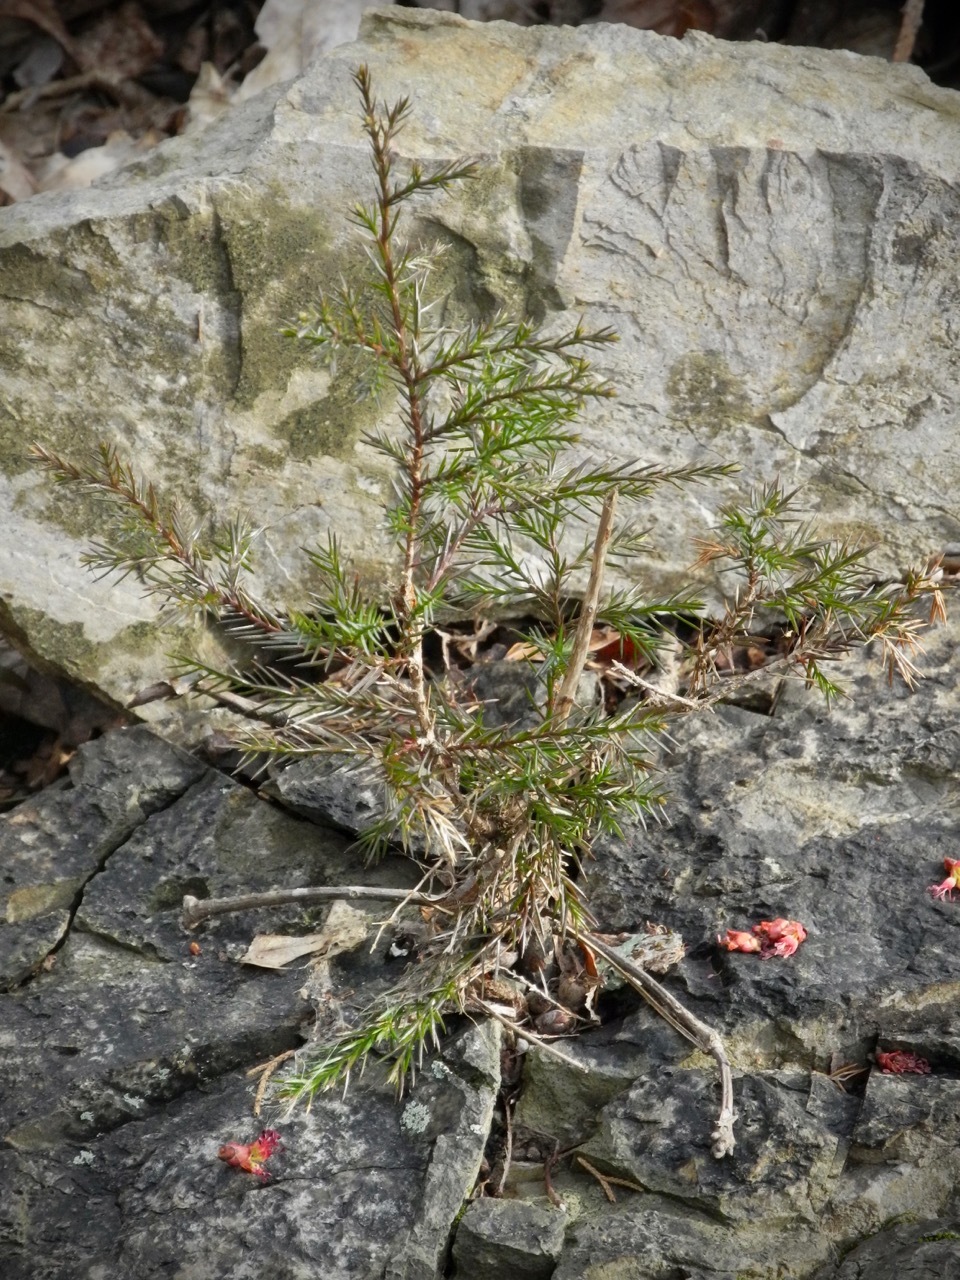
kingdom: Plantae
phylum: Tracheophyta
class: Pinopsida
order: Pinales
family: Cupressaceae
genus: Juniperus
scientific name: Juniperus virginiana
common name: Red juniper
